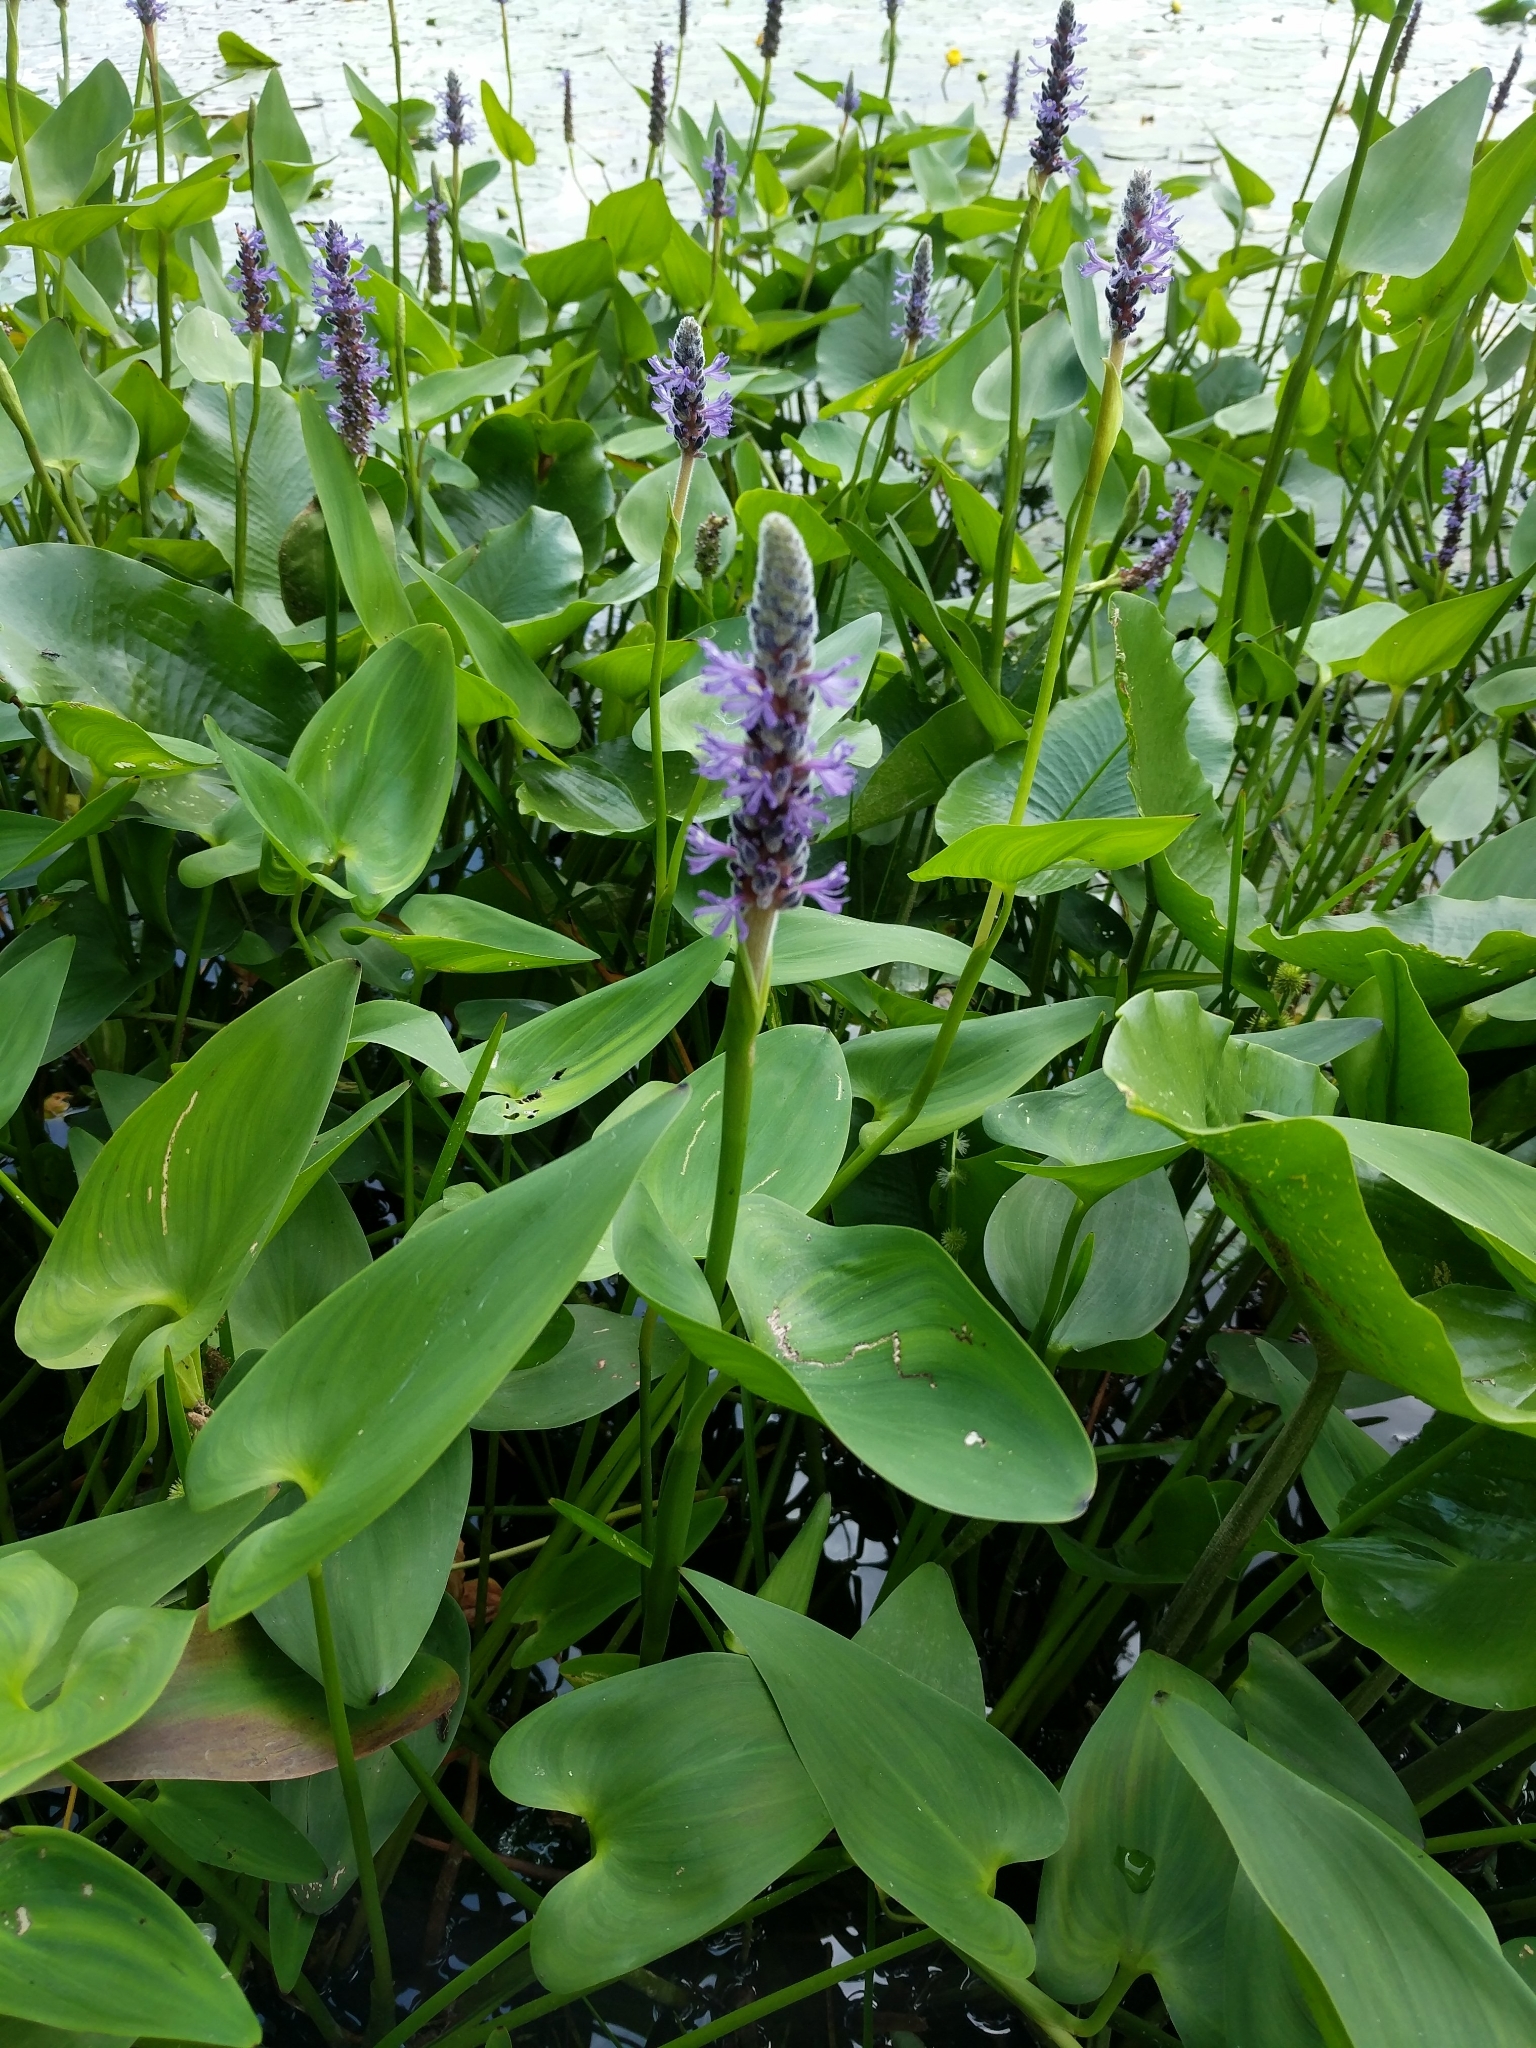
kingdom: Plantae
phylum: Tracheophyta
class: Liliopsida
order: Commelinales
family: Pontederiaceae
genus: Pontederia
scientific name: Pontederia cordata
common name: Pickerelweed
